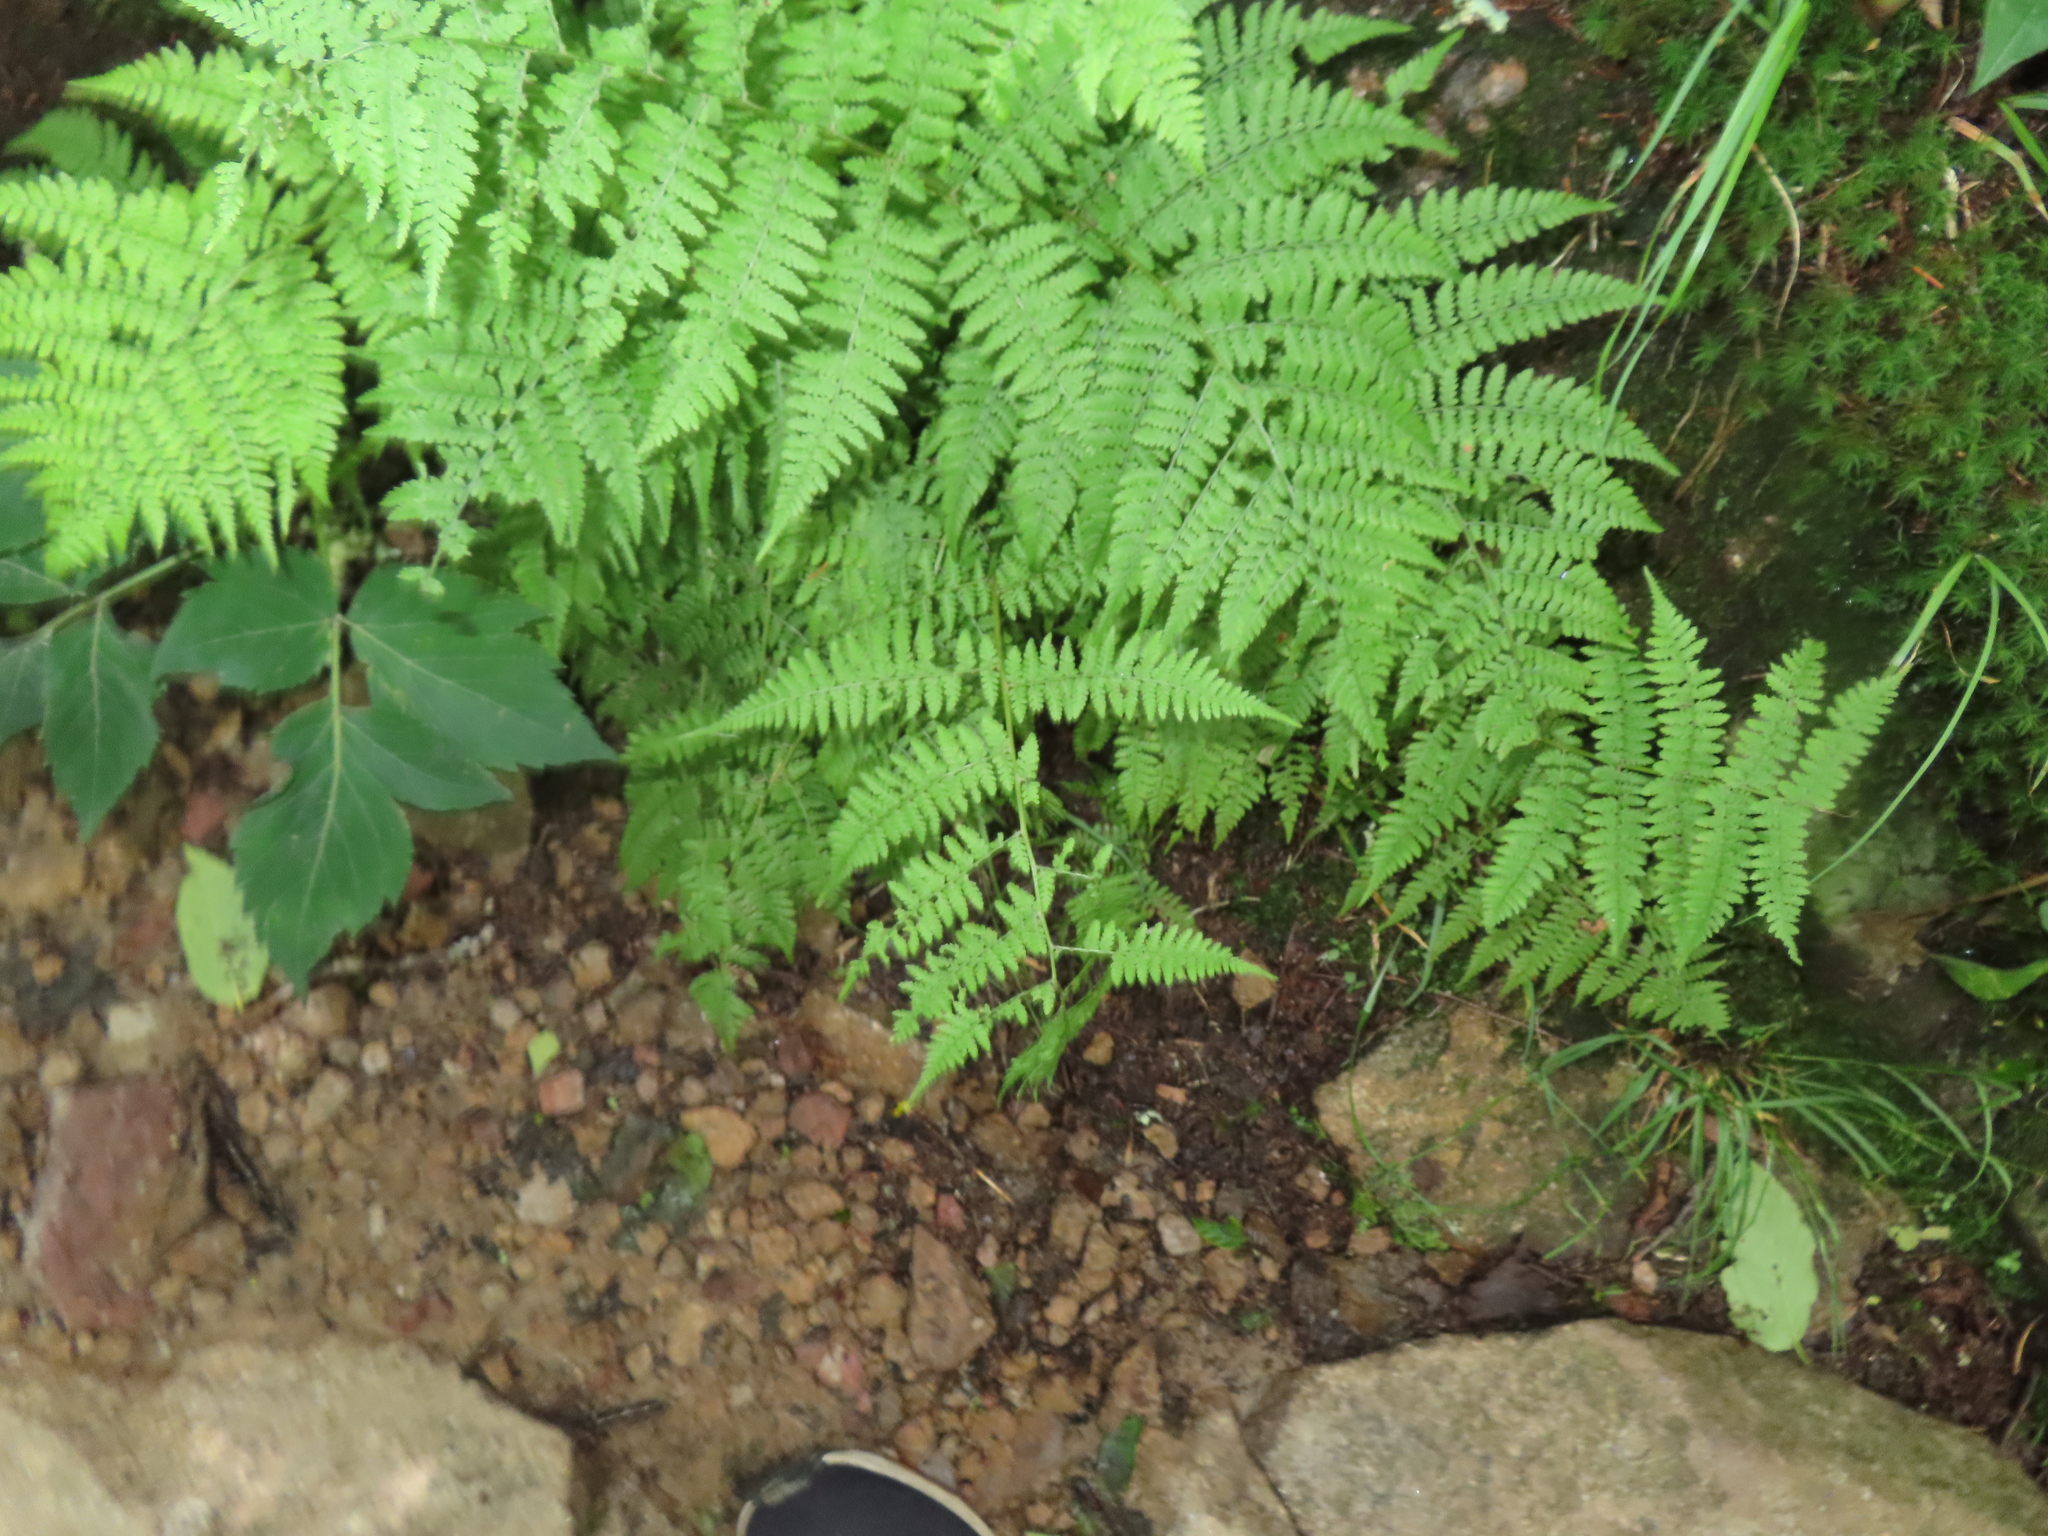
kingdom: Plantae
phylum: Tracheophyta
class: Polypodiopsida
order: Polypodiales
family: Athyriaceae
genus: Athyrium
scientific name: Athyrium asplenioides
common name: Southern lady fern
